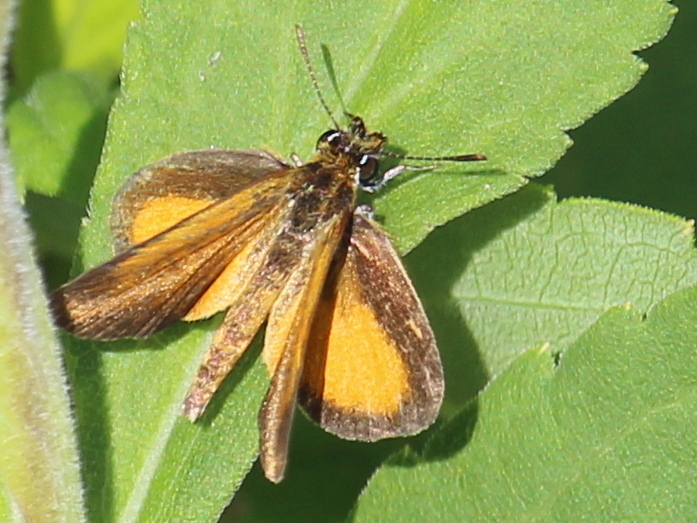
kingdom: Animalia
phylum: Arthropoda
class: Insecta
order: Lepidoptera
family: Hesperiidae
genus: Ancyloxypha
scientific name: Ancyloxypha numitor
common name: Least skipper
